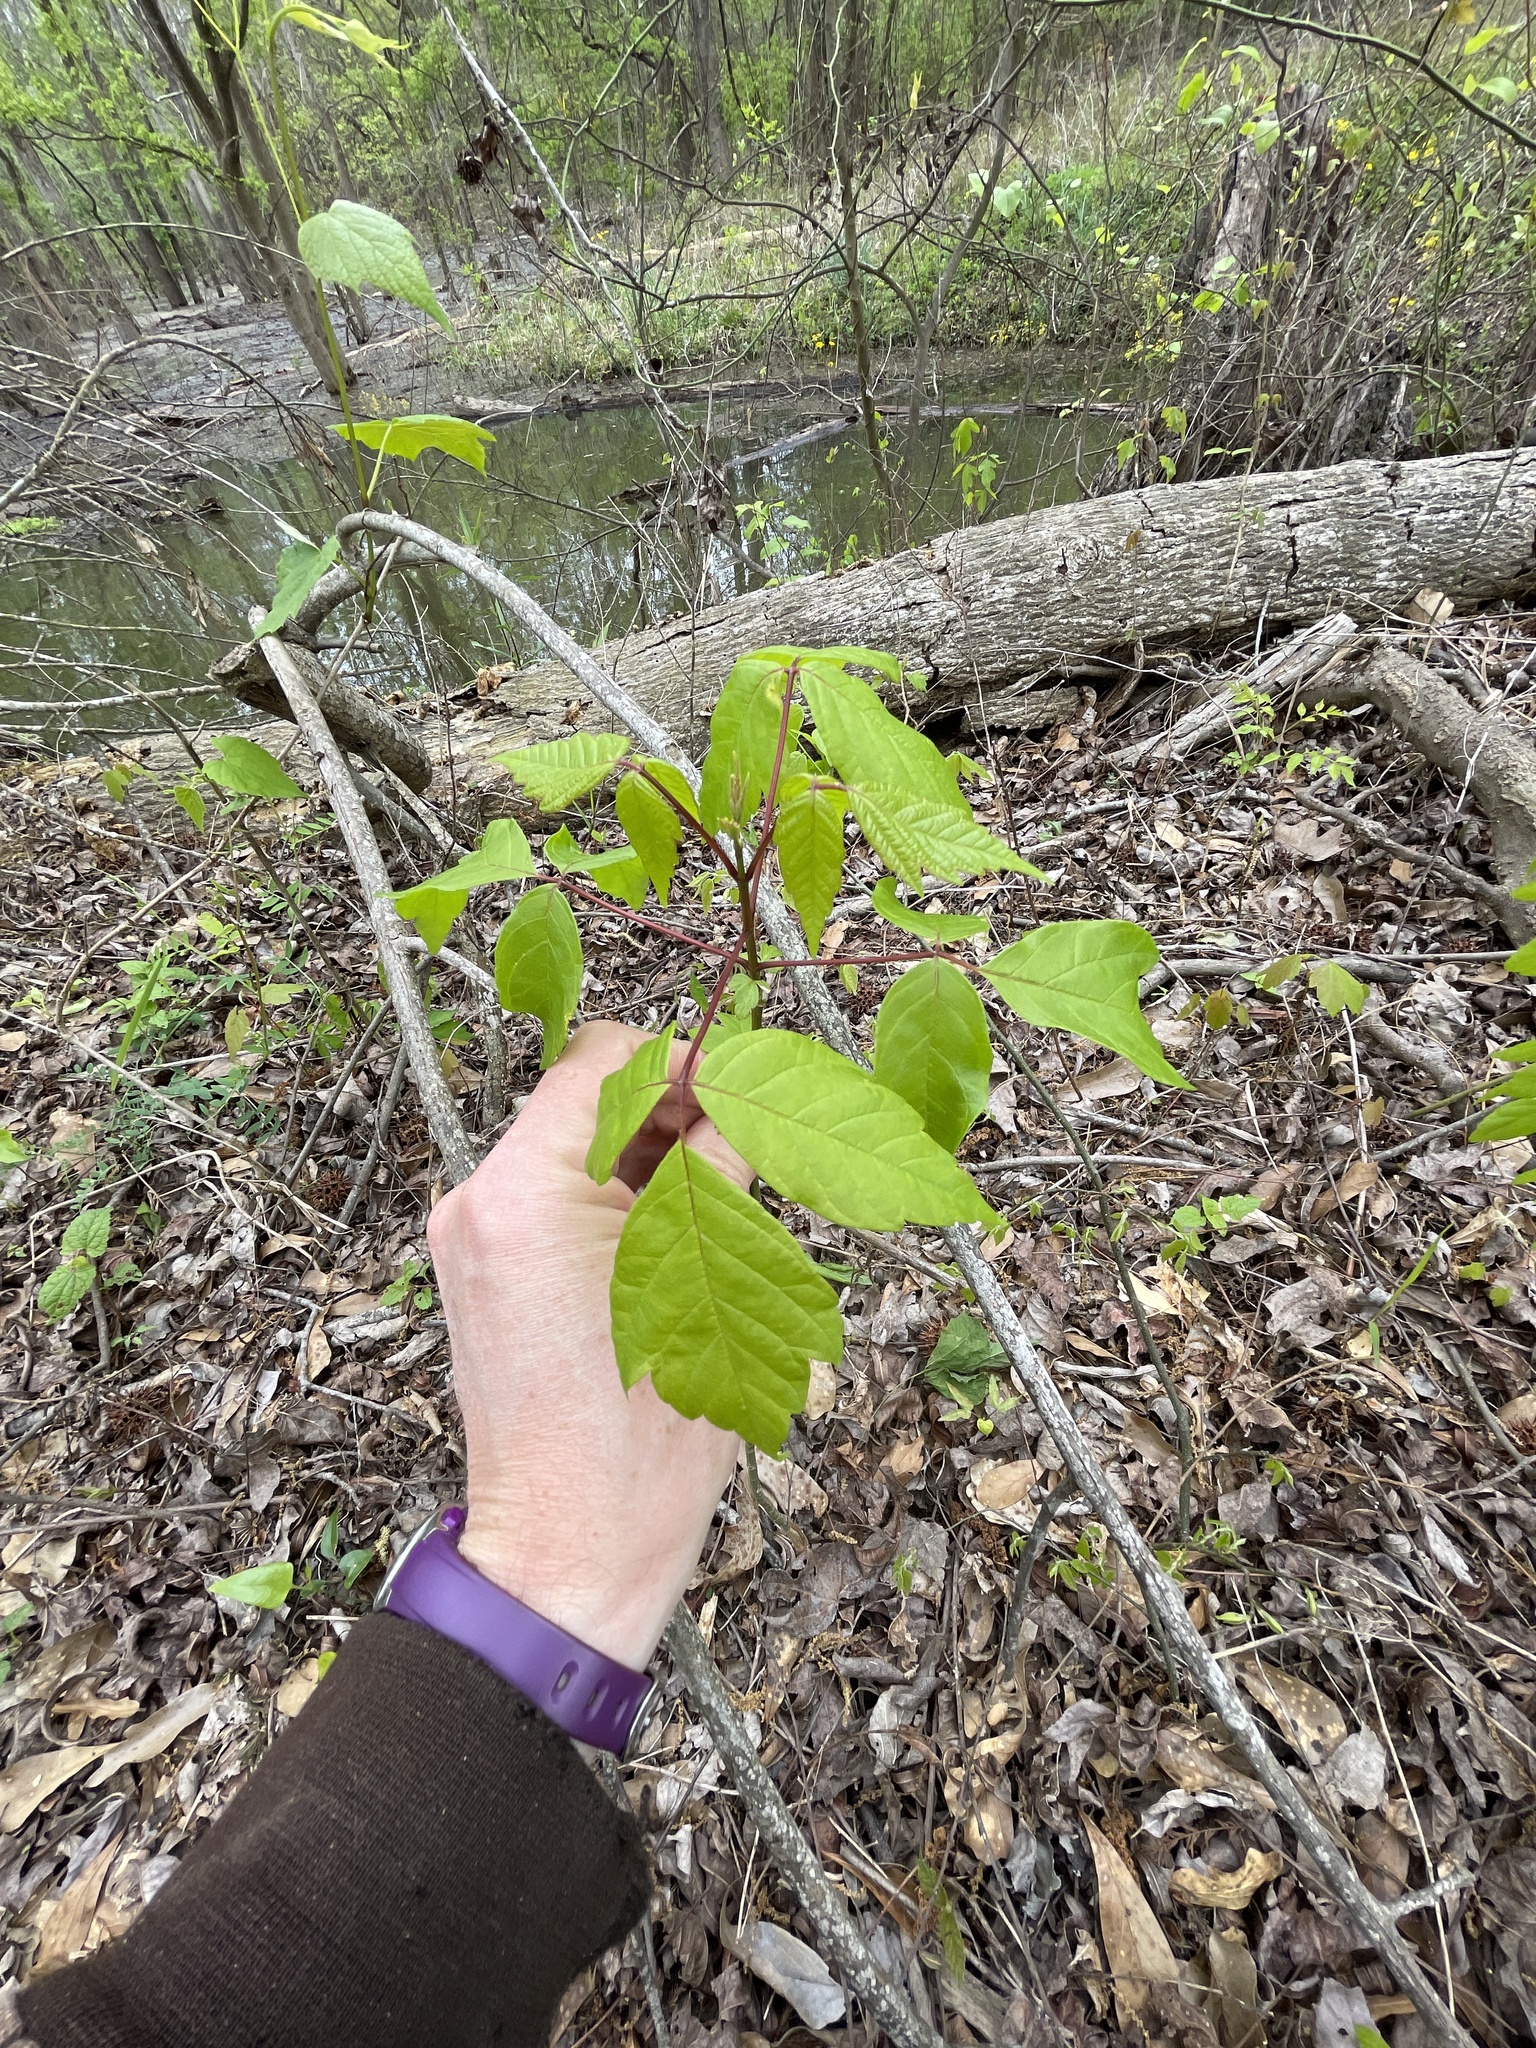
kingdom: Plantae
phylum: Tracheophyta
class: Magnoliopsida
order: Sapindales
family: Sapindaceae
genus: Acer
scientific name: Acer negundo
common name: Ashleaf maple
